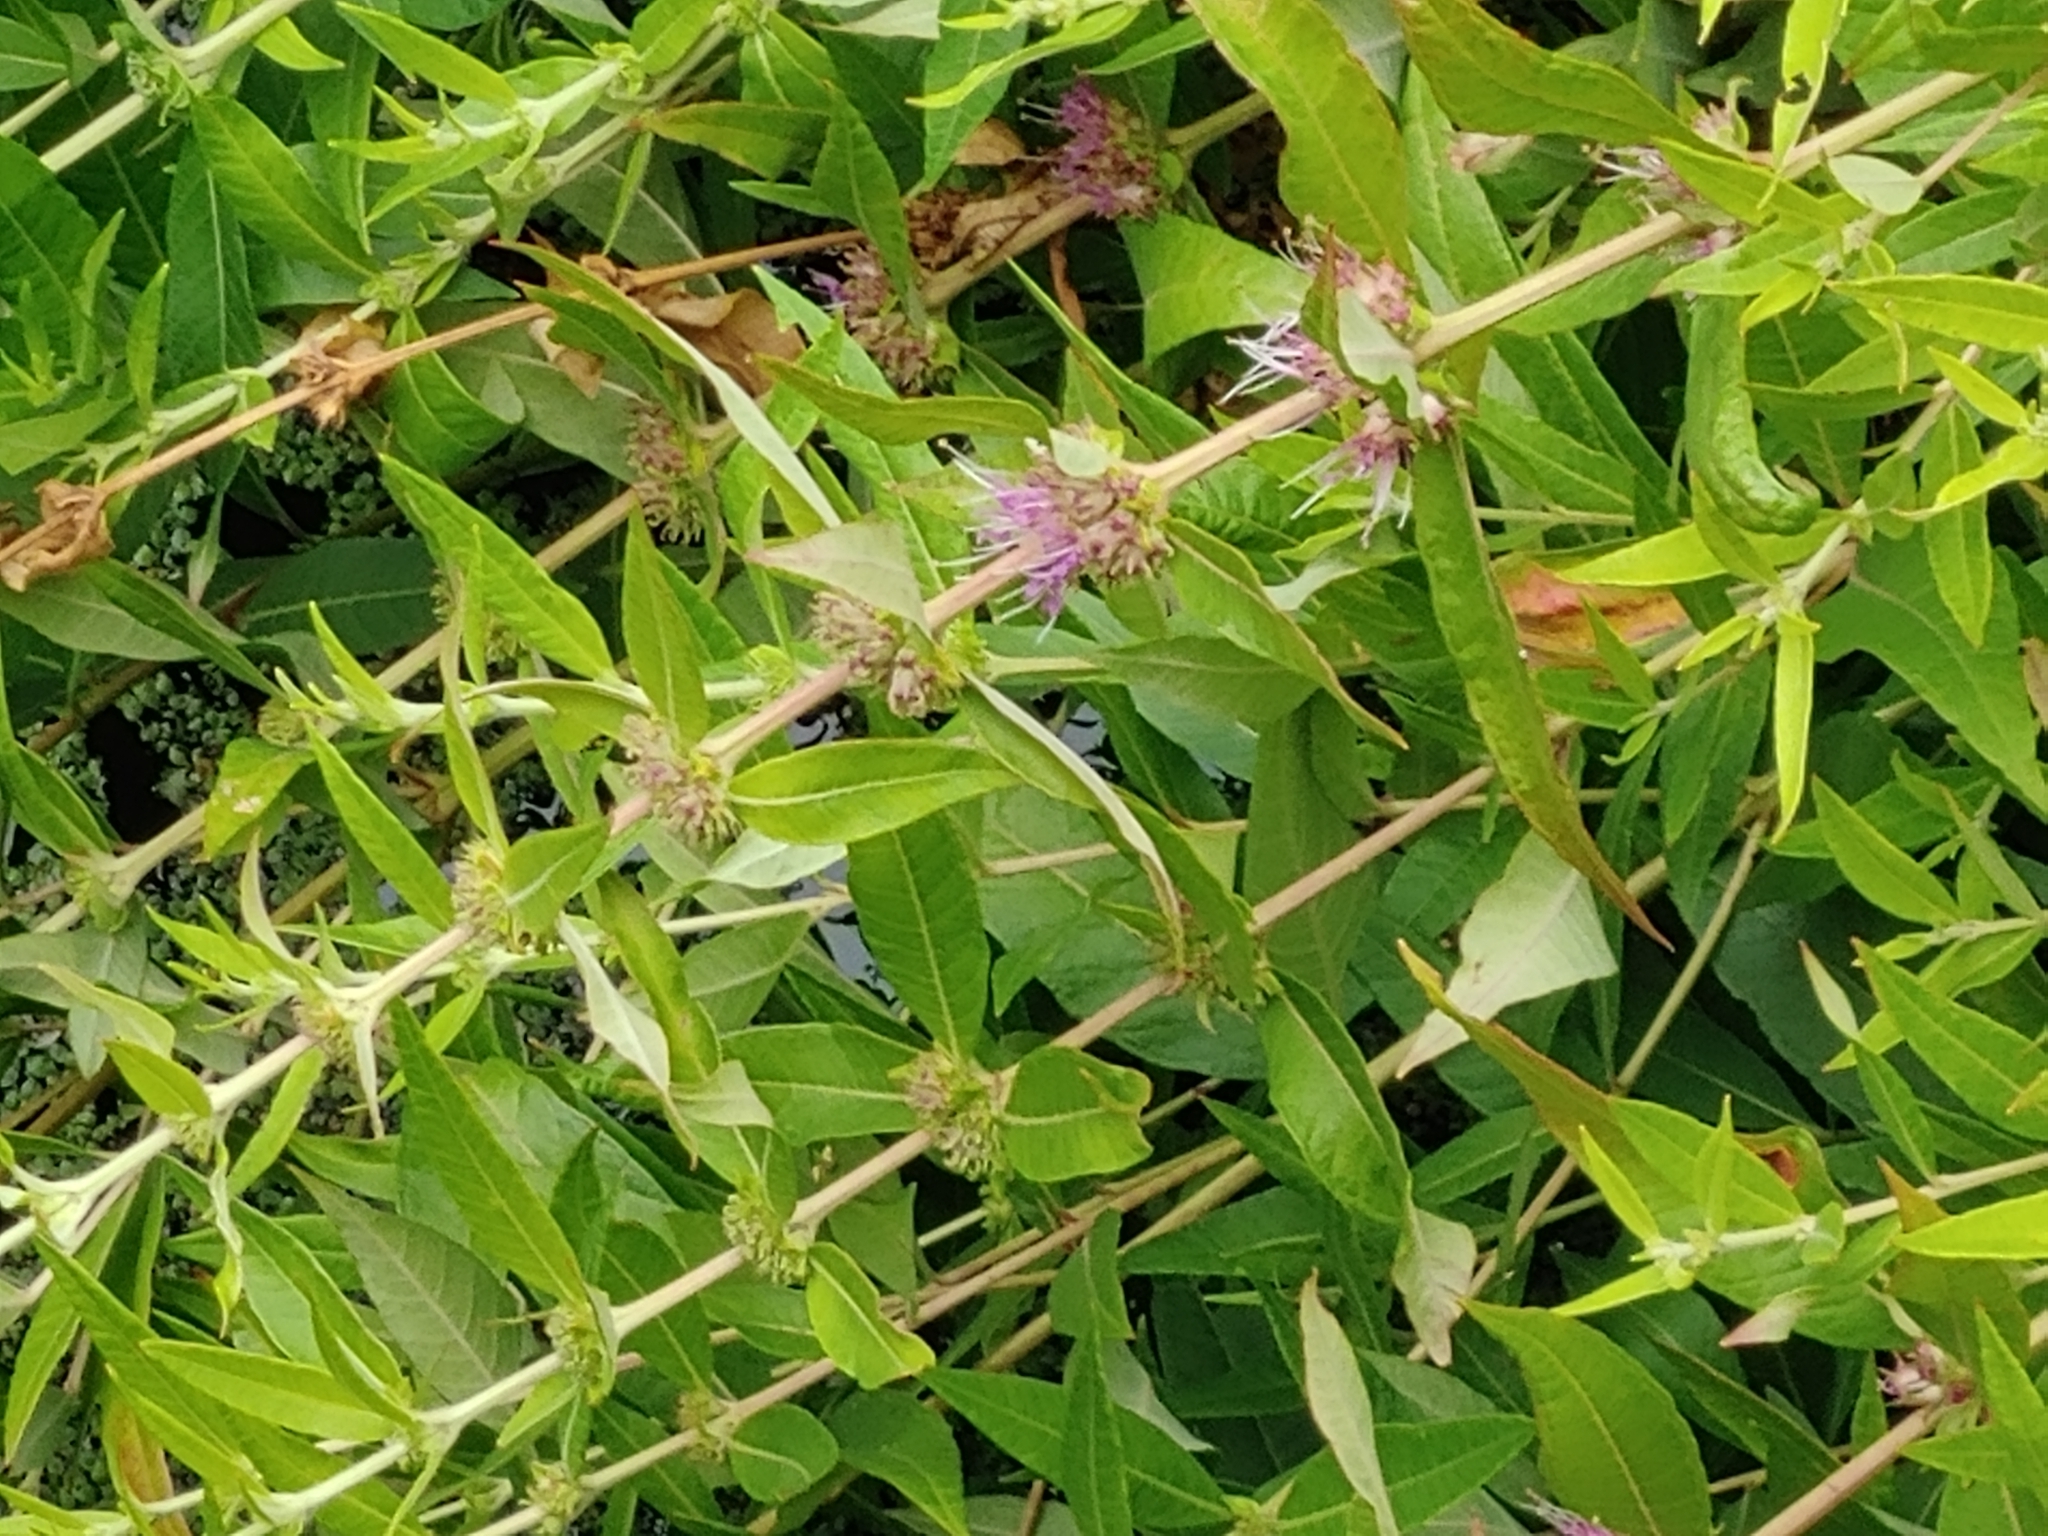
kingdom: Plantae
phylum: Tracheophyta
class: Magnoliopsida
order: Myrtales
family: Lythraceae
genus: Decodon
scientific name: Decodon verticillatus
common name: Hairy swamp loosestrife
